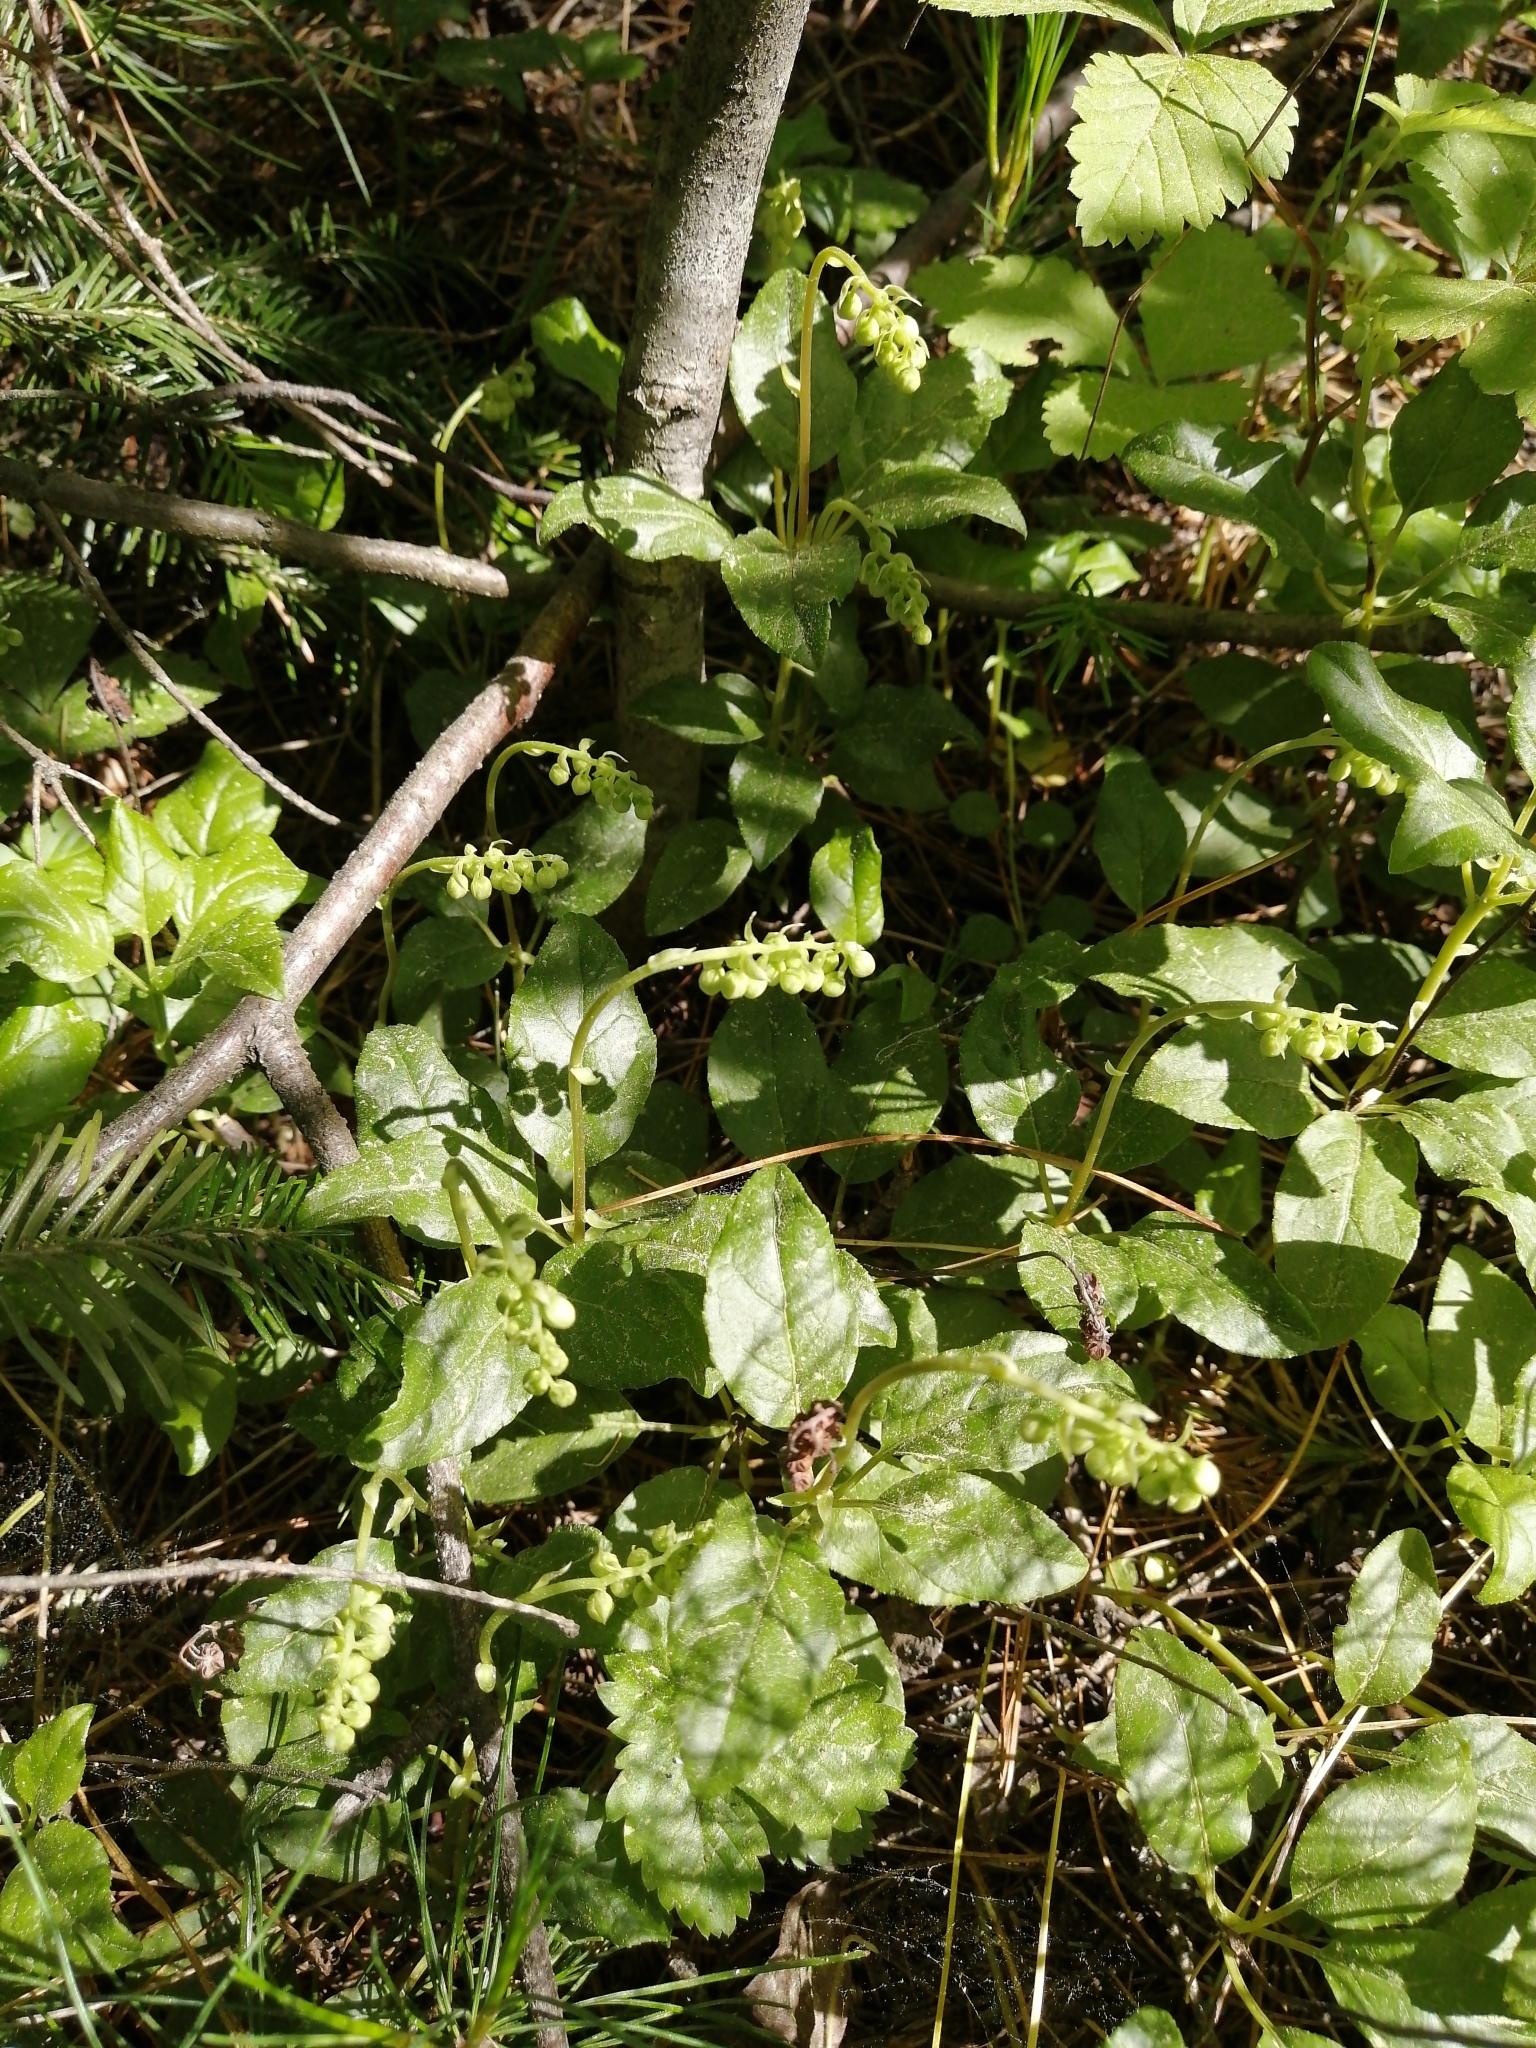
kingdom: Plantae
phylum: Tracheophyta
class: Magnoliopsida
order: Ericales
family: Ericaceae
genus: Orthilia
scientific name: Orthilia secunda
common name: One-sided orthilia
